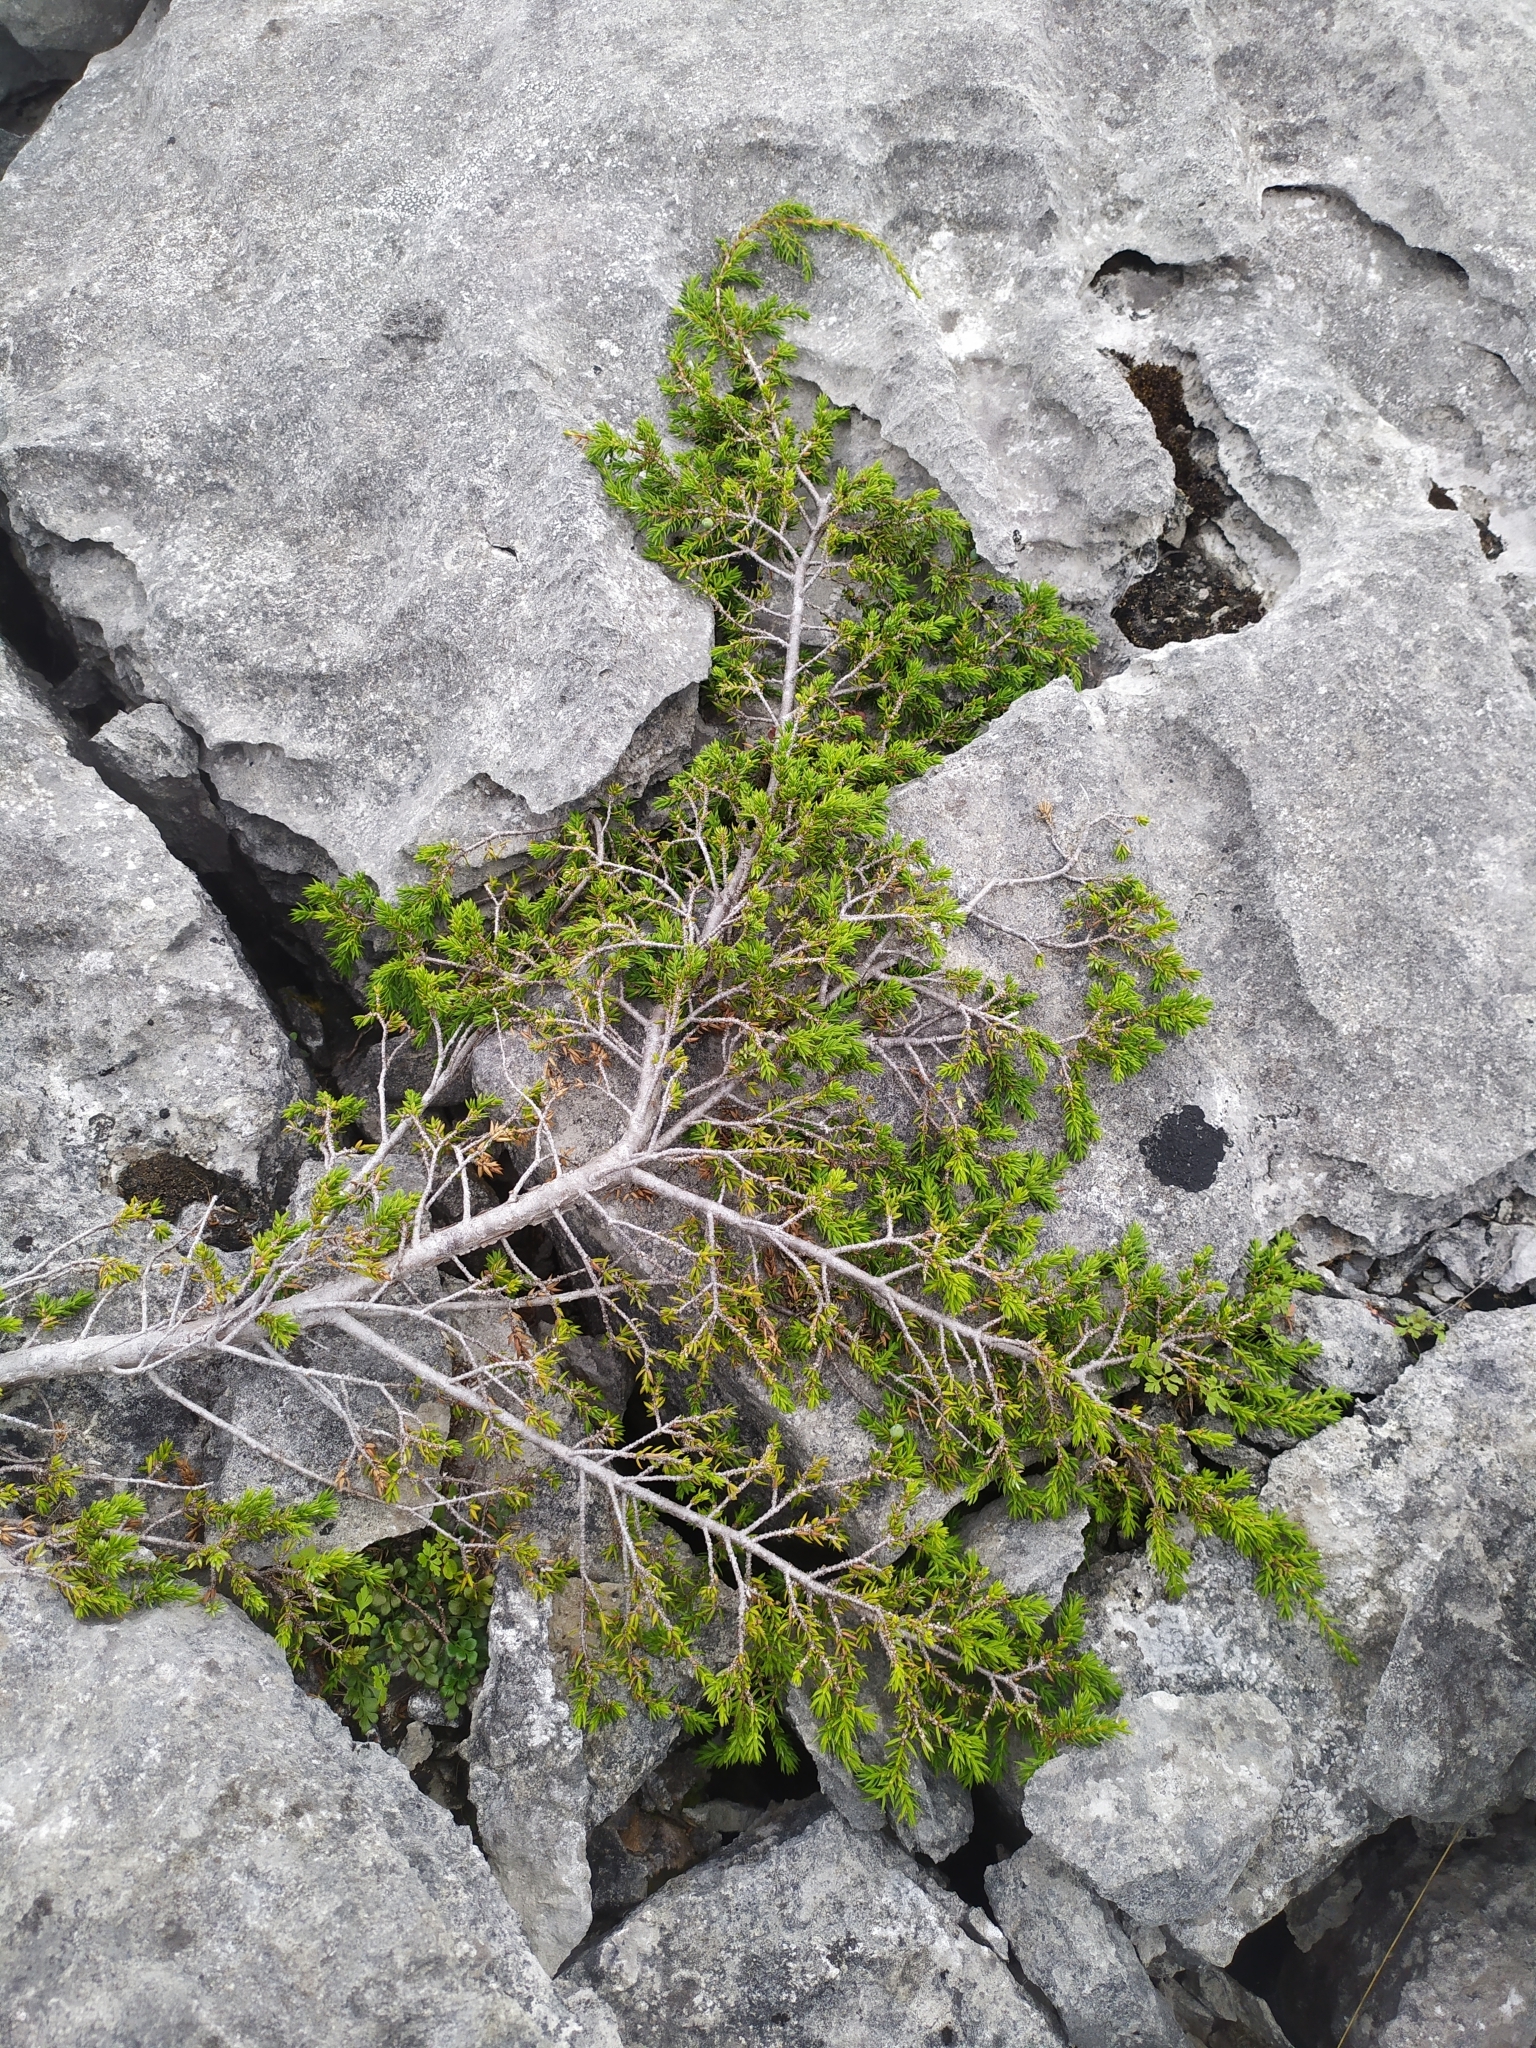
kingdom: Plantae
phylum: Tracheophyta
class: Pinopsida
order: Pinales
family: Cupressaceae
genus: Juniperus
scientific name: Juniperus communis
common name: Common juniper
